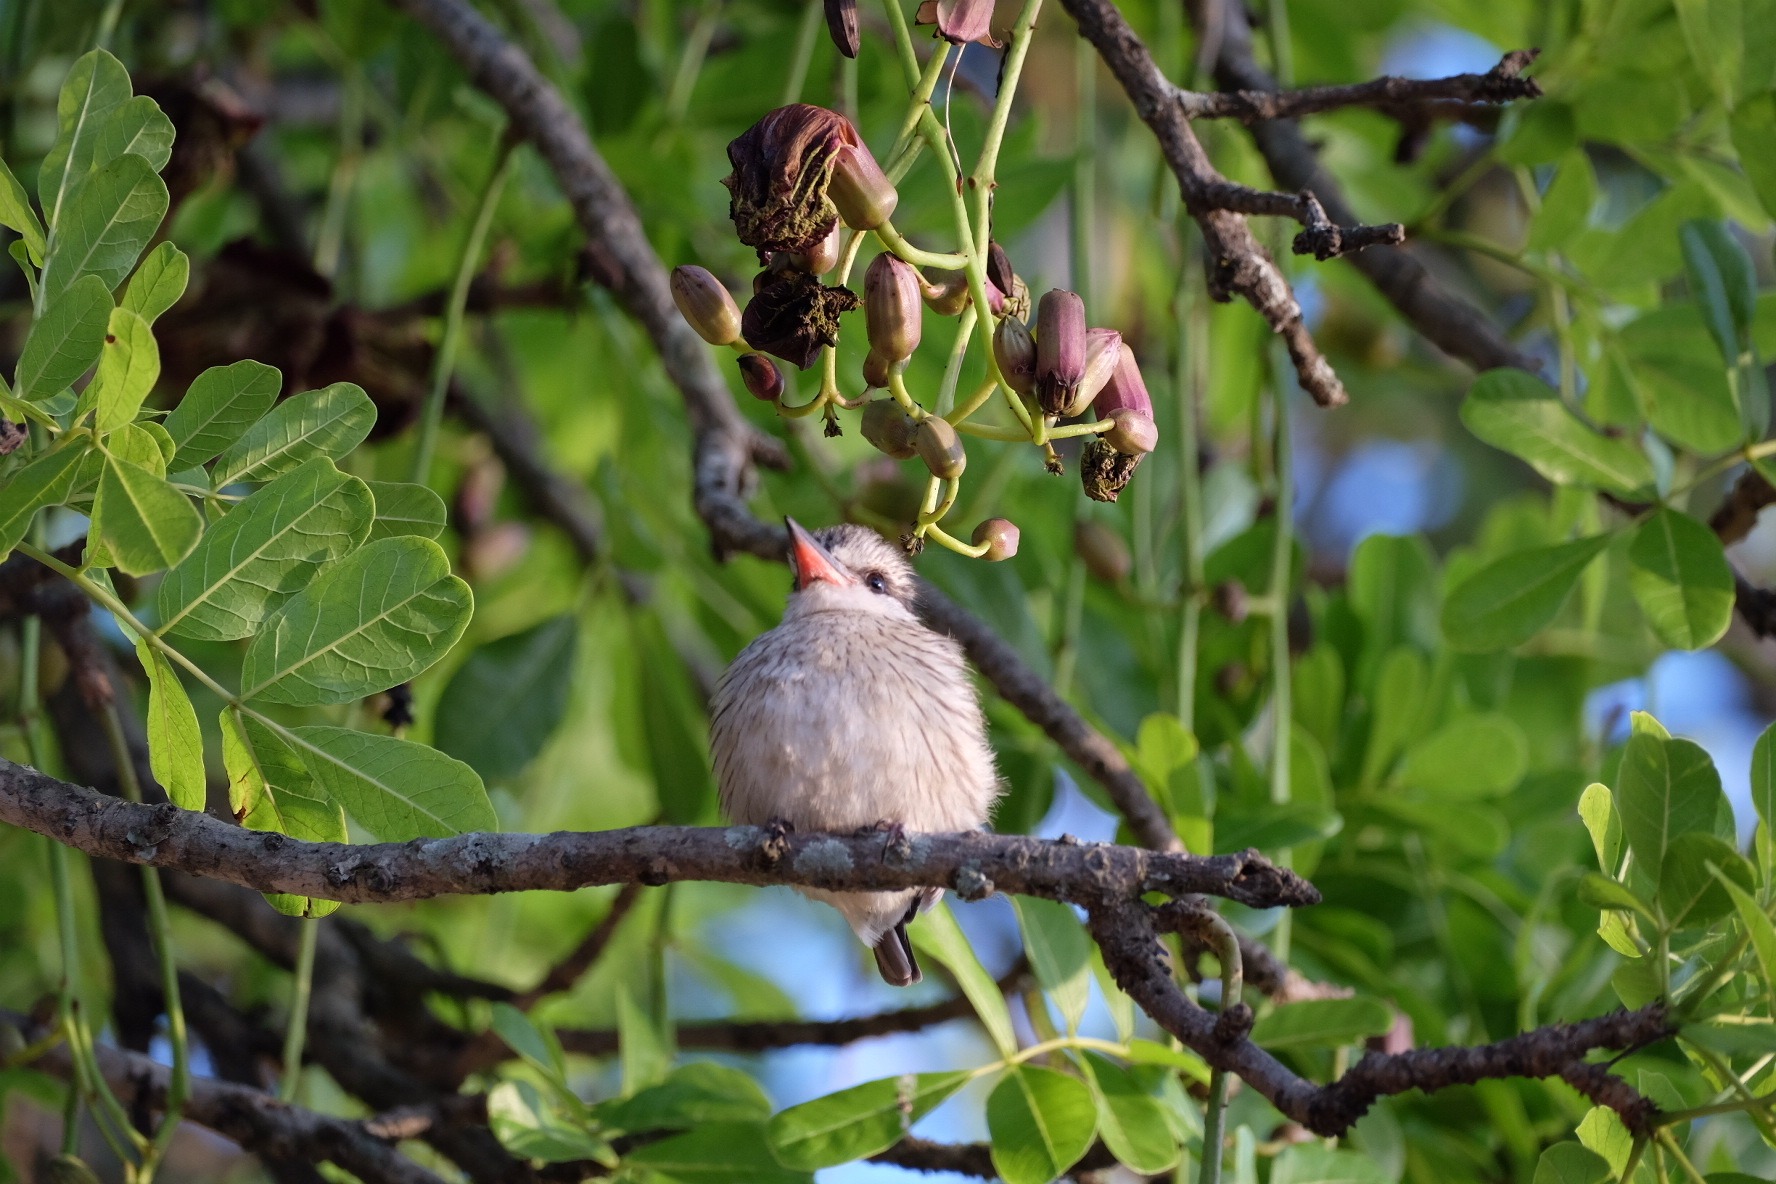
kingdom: Animalia
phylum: Chordata
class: Aves
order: Coraciiformes
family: Alcedinidae
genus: Halcyon
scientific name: Halcyon chelicuti
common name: Striped kingfisher
